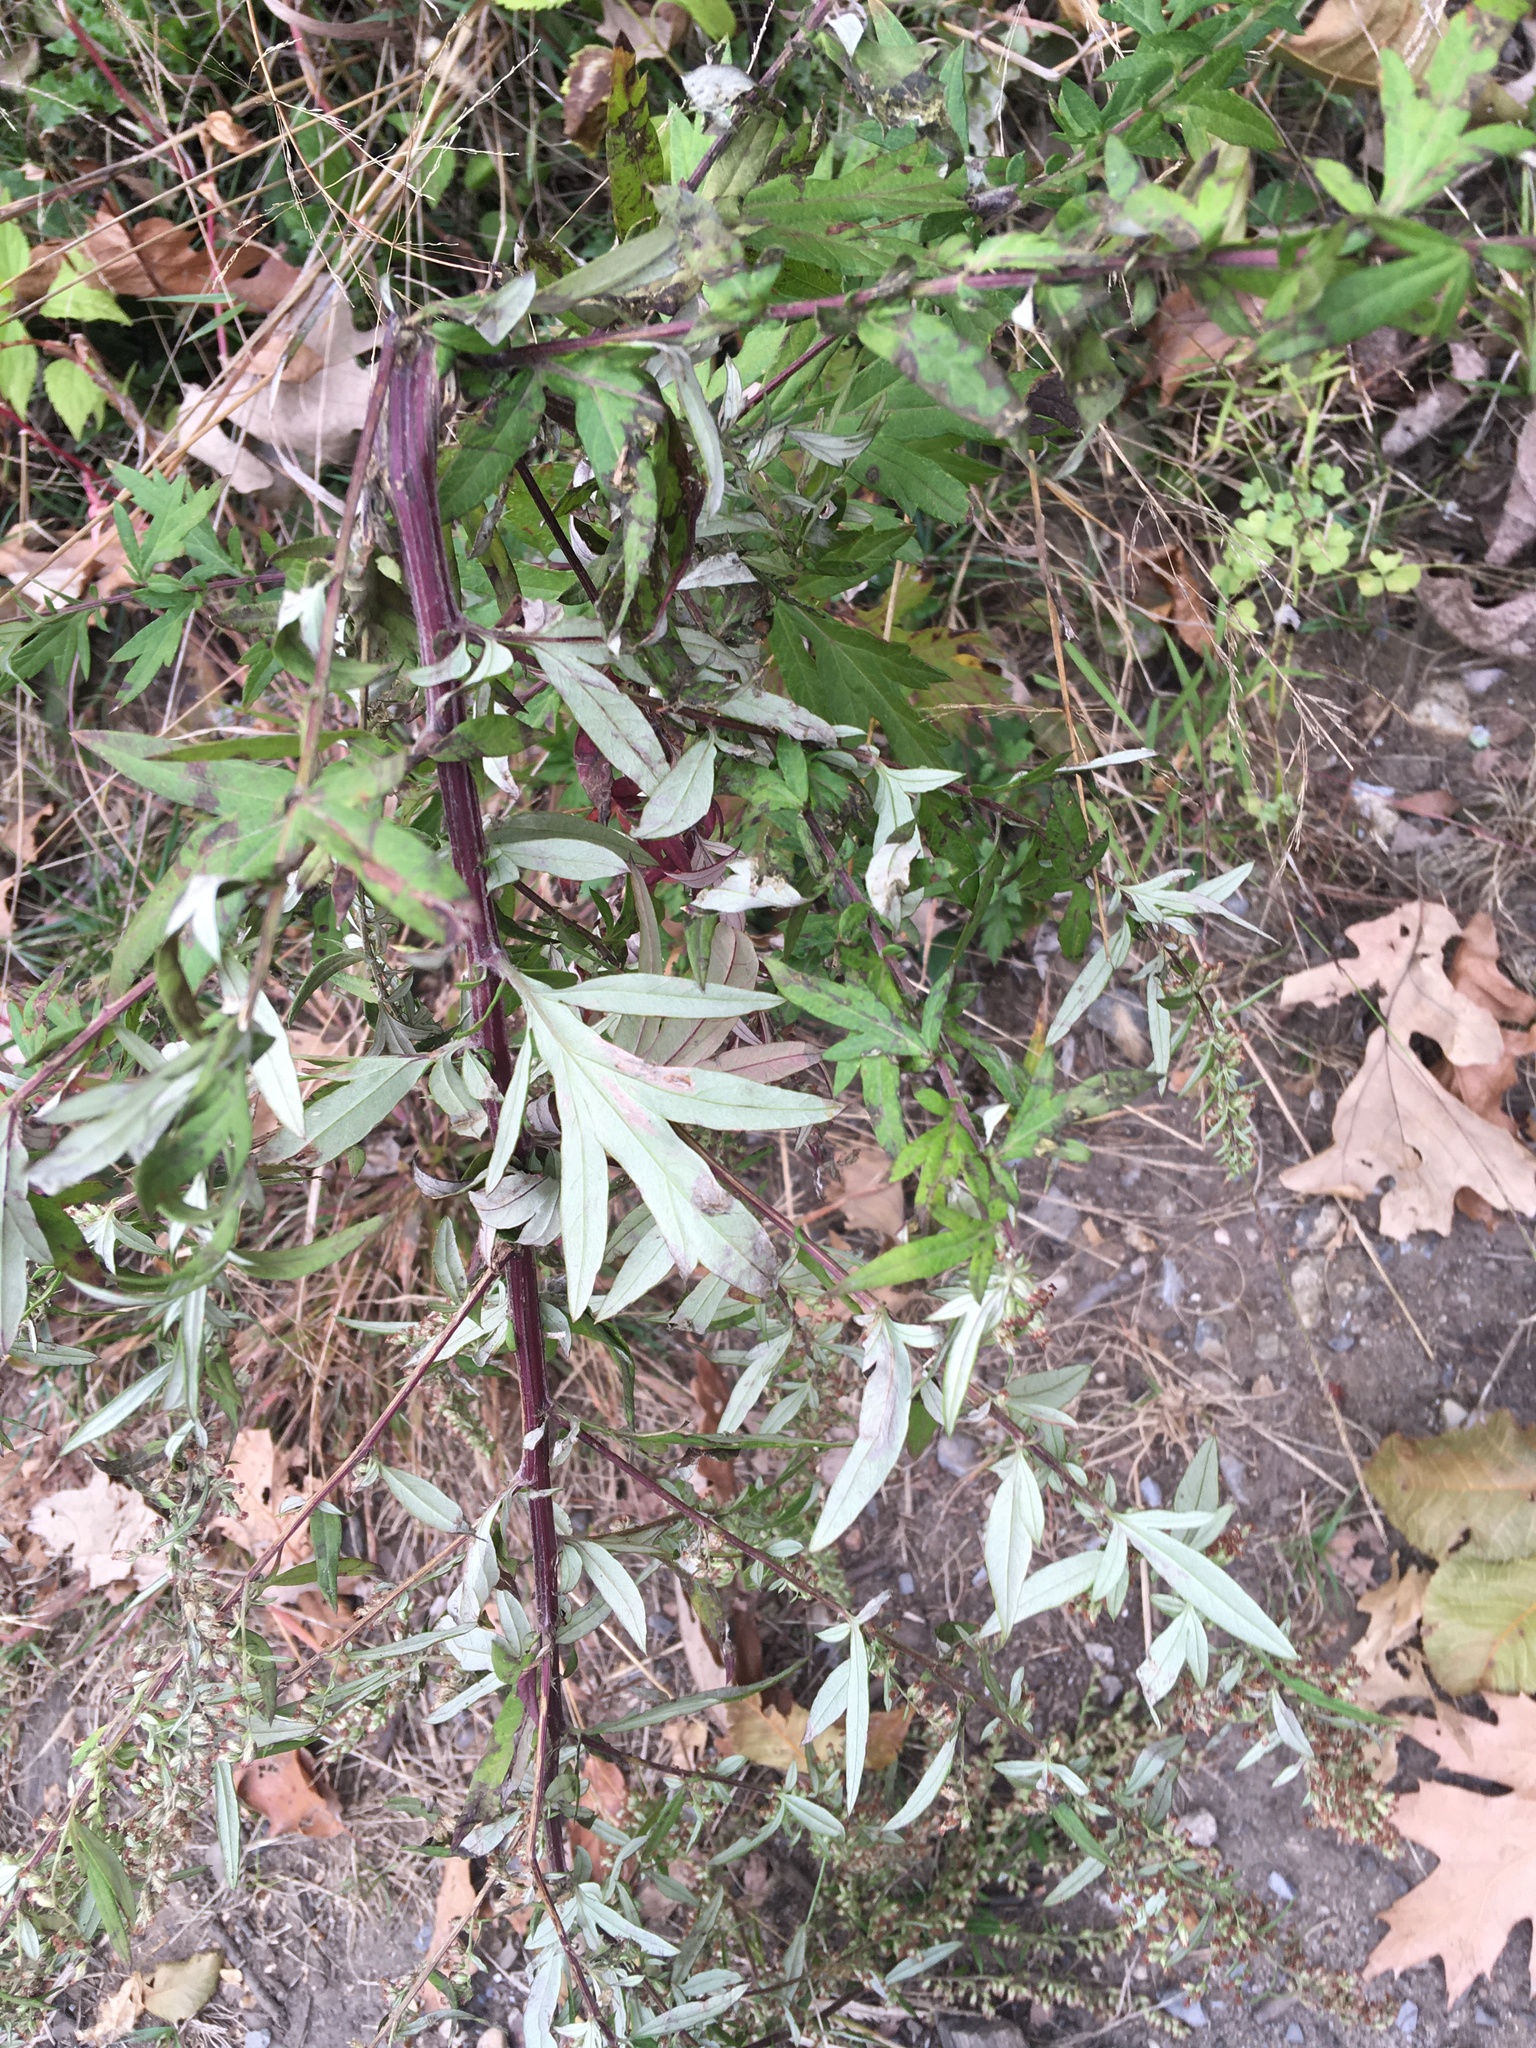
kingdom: Plantae
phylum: Tracheophyta
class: Magnoliopsida
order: Asterales
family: Asteraceae
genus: Artemisia
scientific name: Artemisia vulgaris
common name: Mugwort
